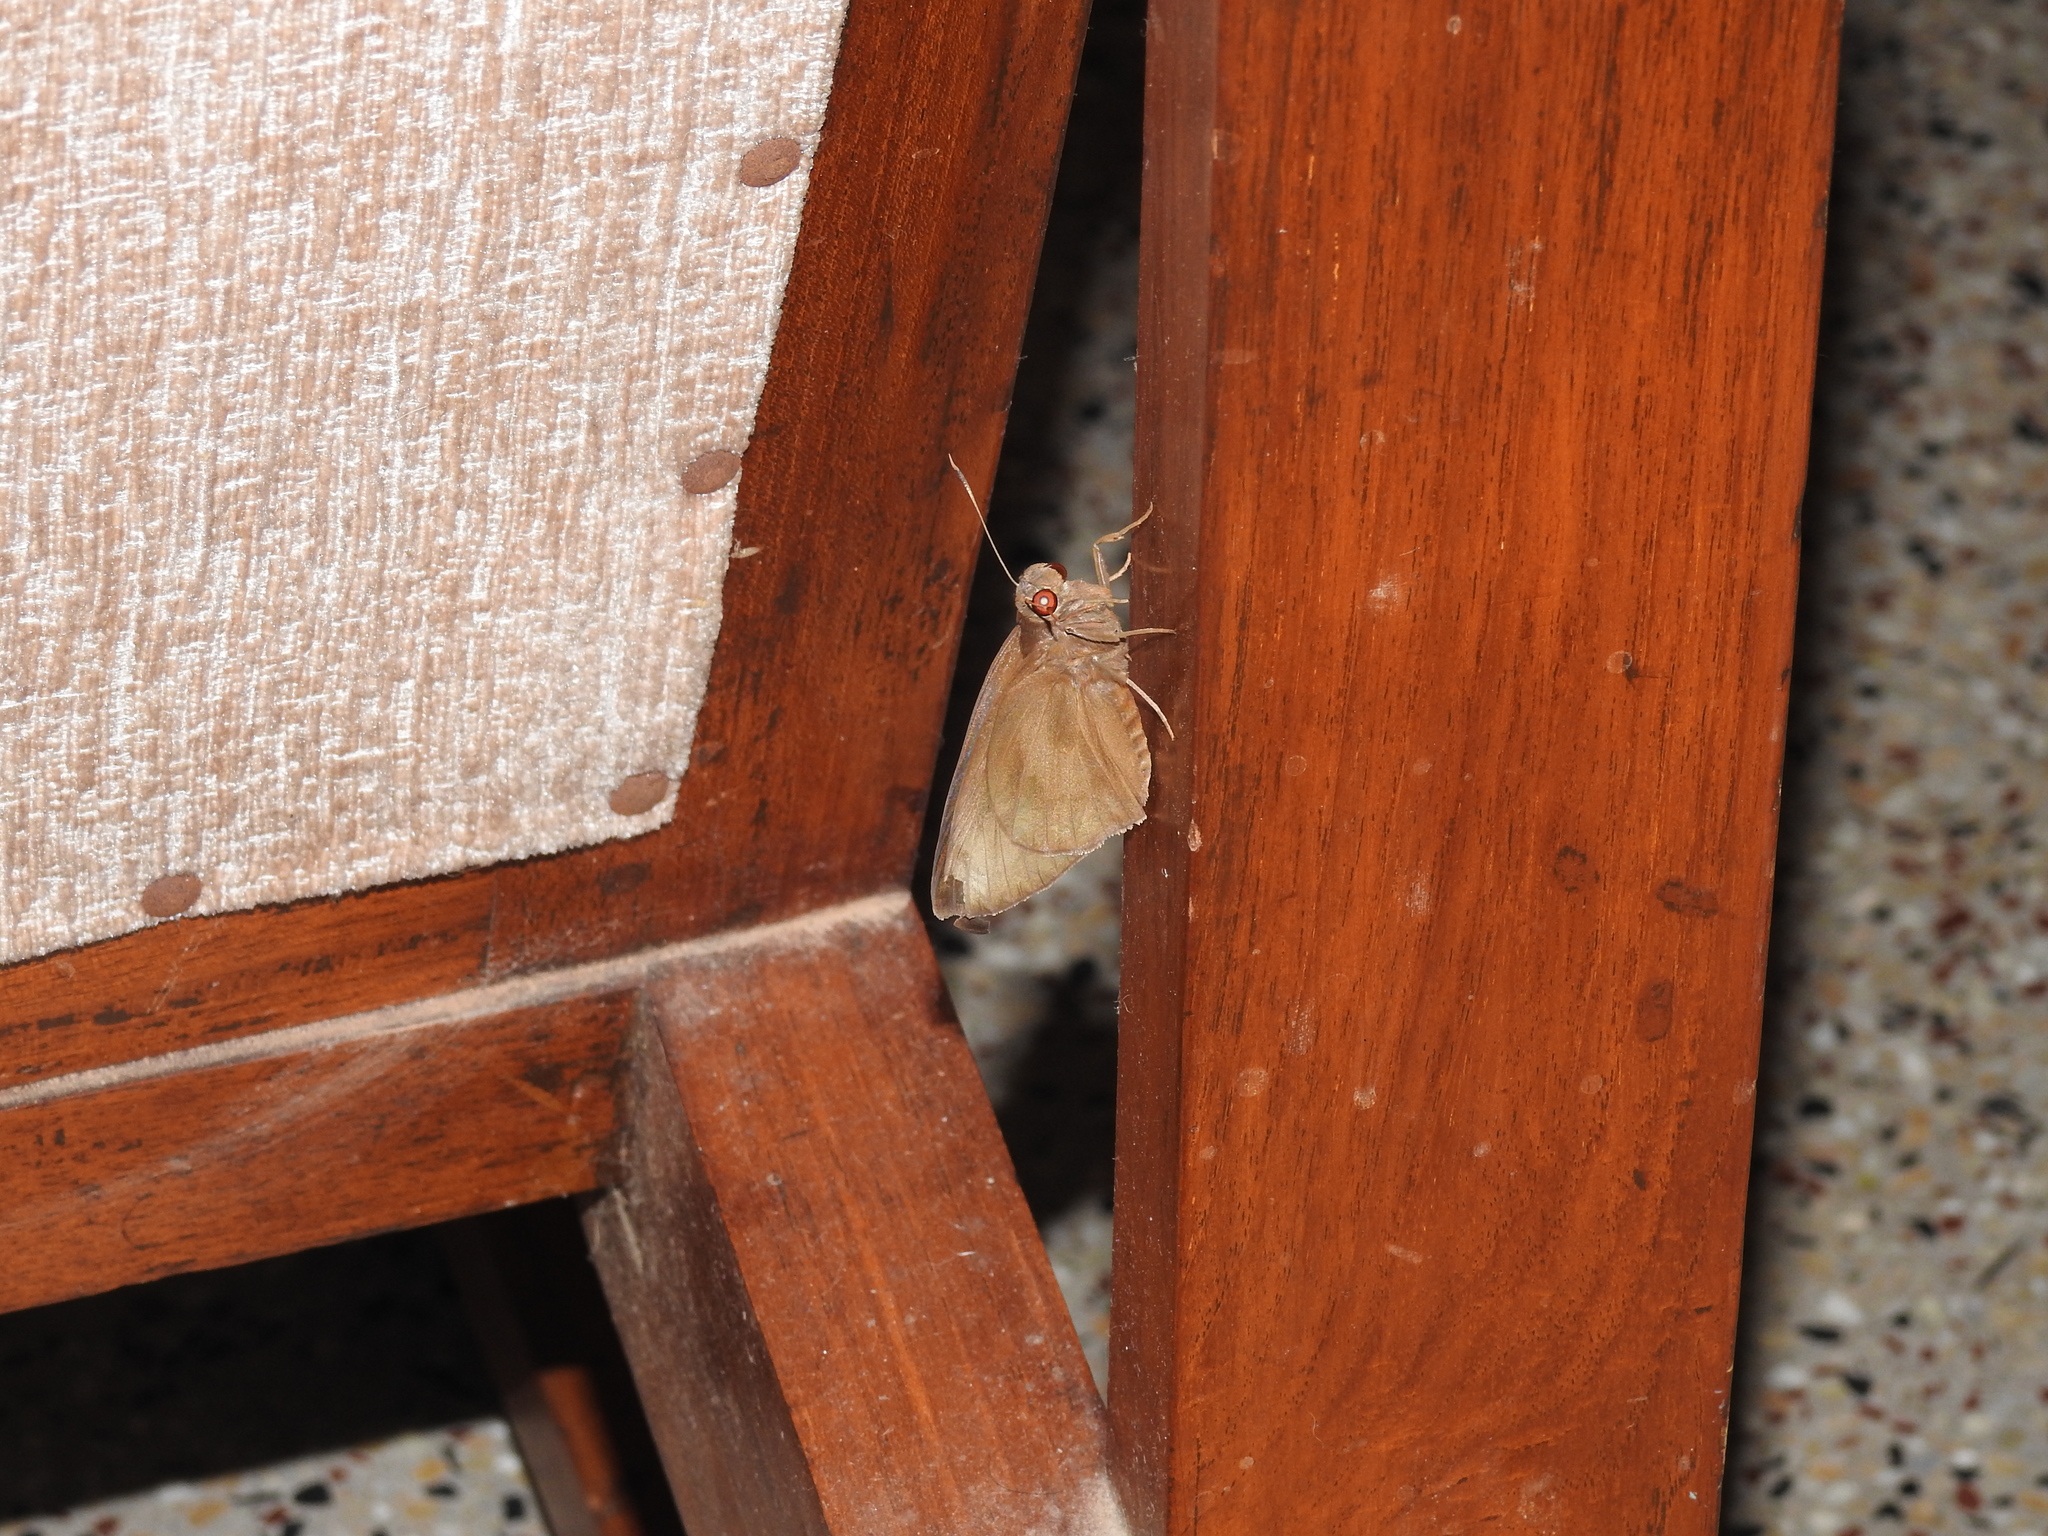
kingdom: Animalia
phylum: Arthropoda
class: Insecta
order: Lepidoptera
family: Hesperiidae
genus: Erionota
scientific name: Erionota torus
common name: Rounded palm-redeye
